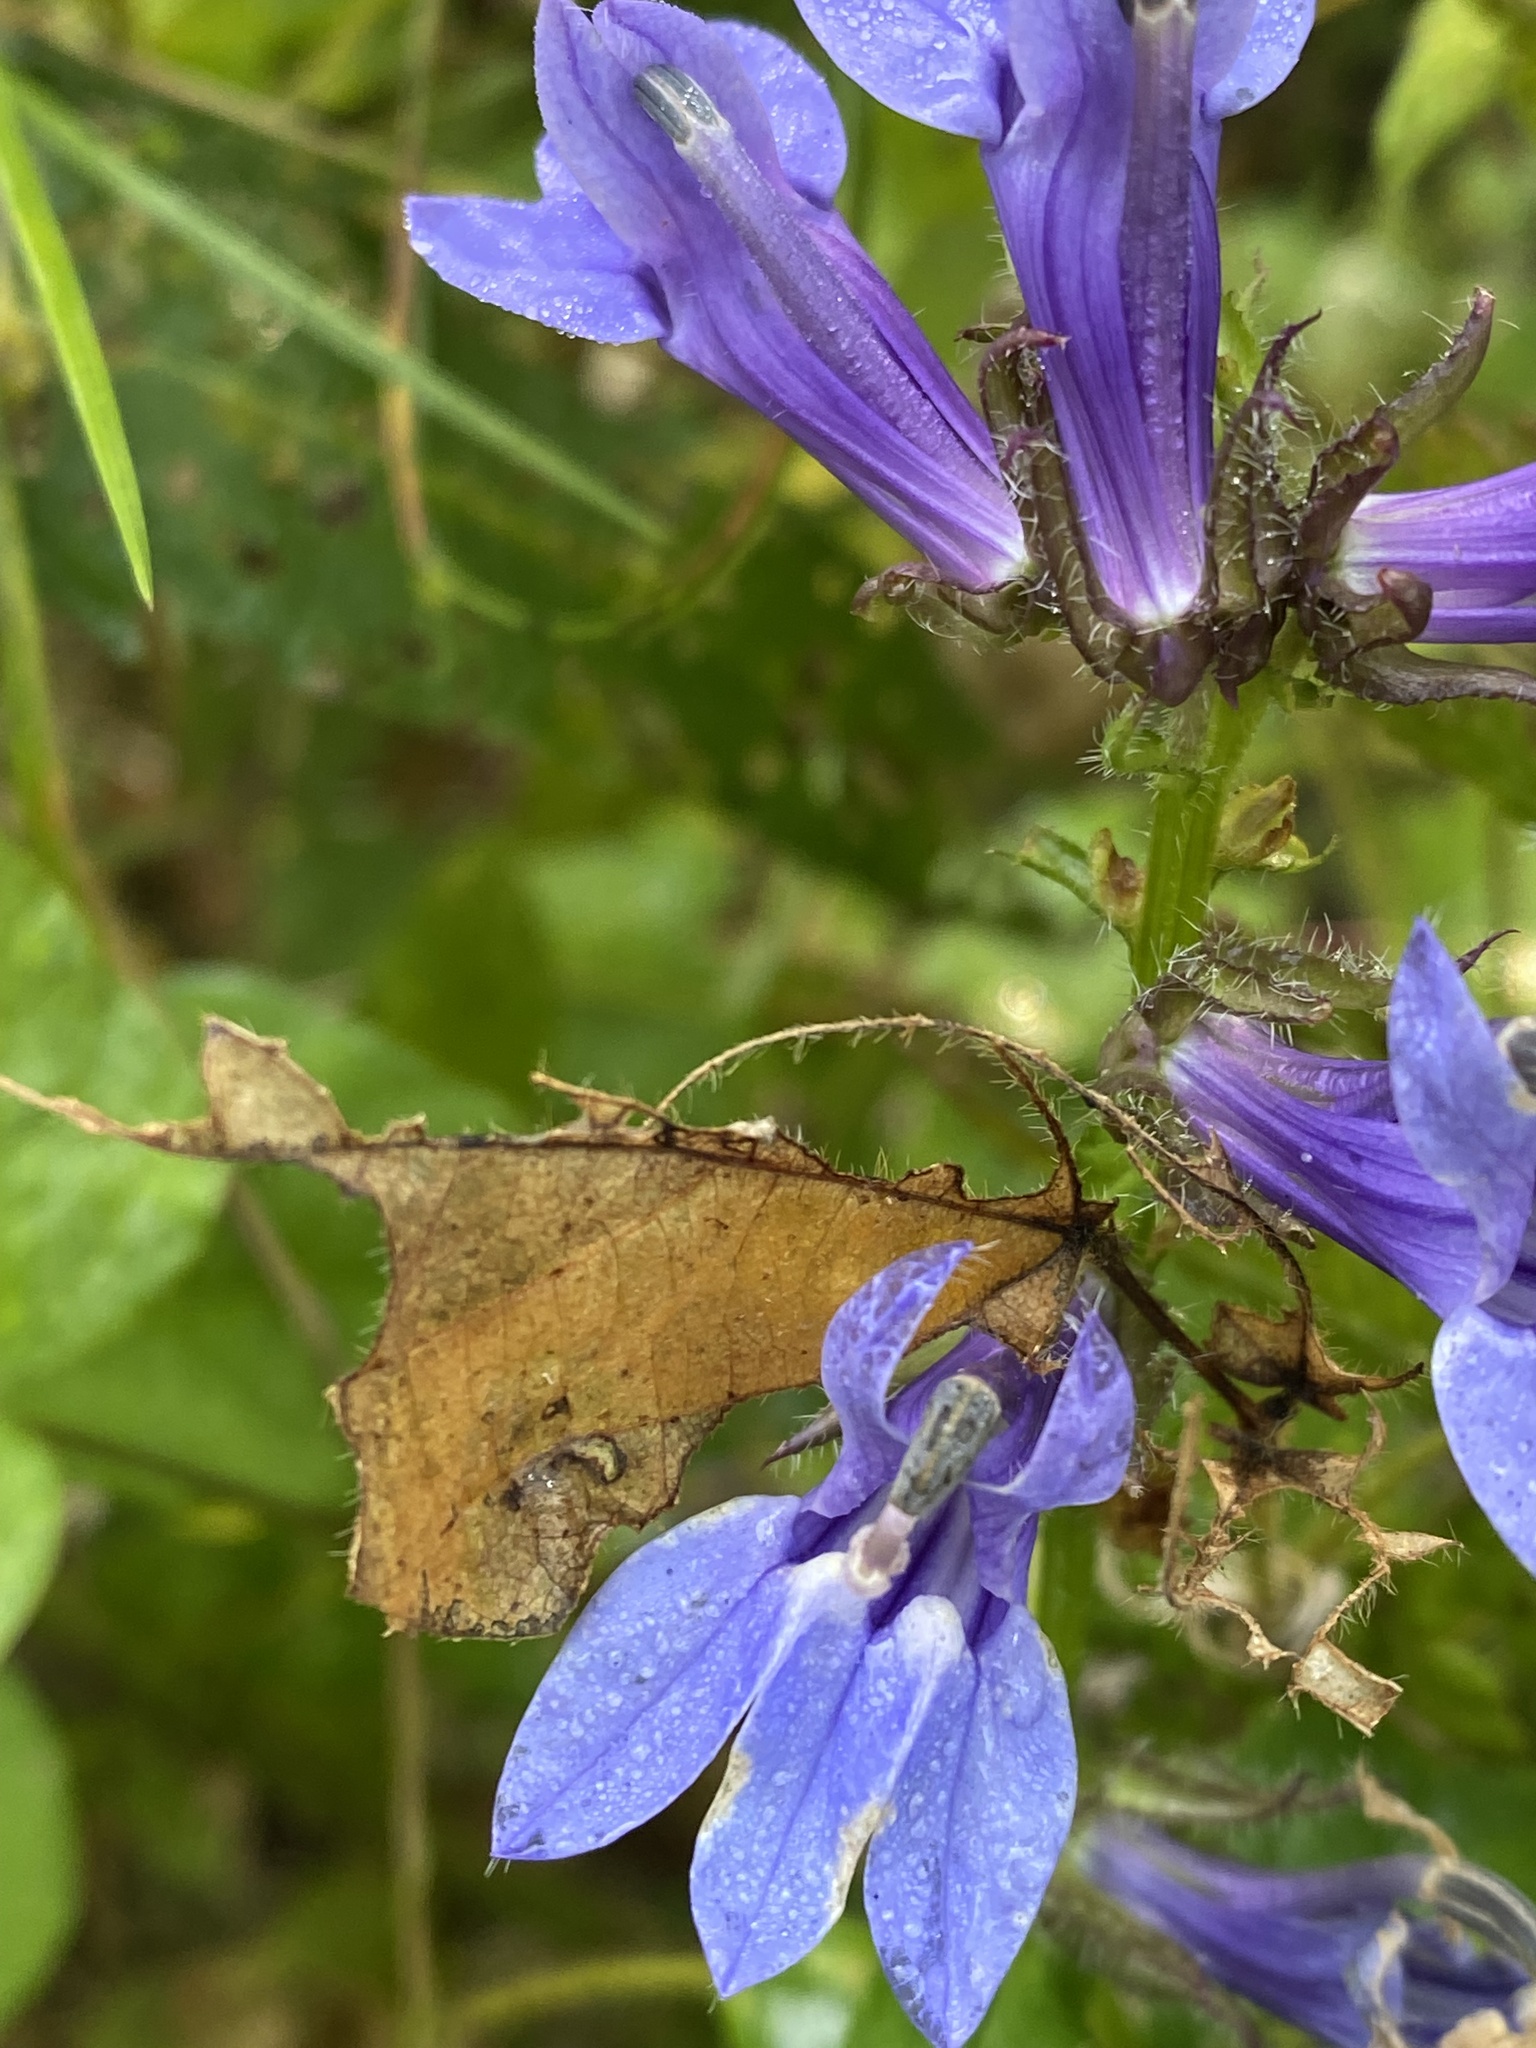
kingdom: Plantae
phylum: Tracheophyta
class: Magnoliopsida
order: Asterales
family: Campanulaceae
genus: Lobelia
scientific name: Lobelia siphilitica
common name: Great lobelia
